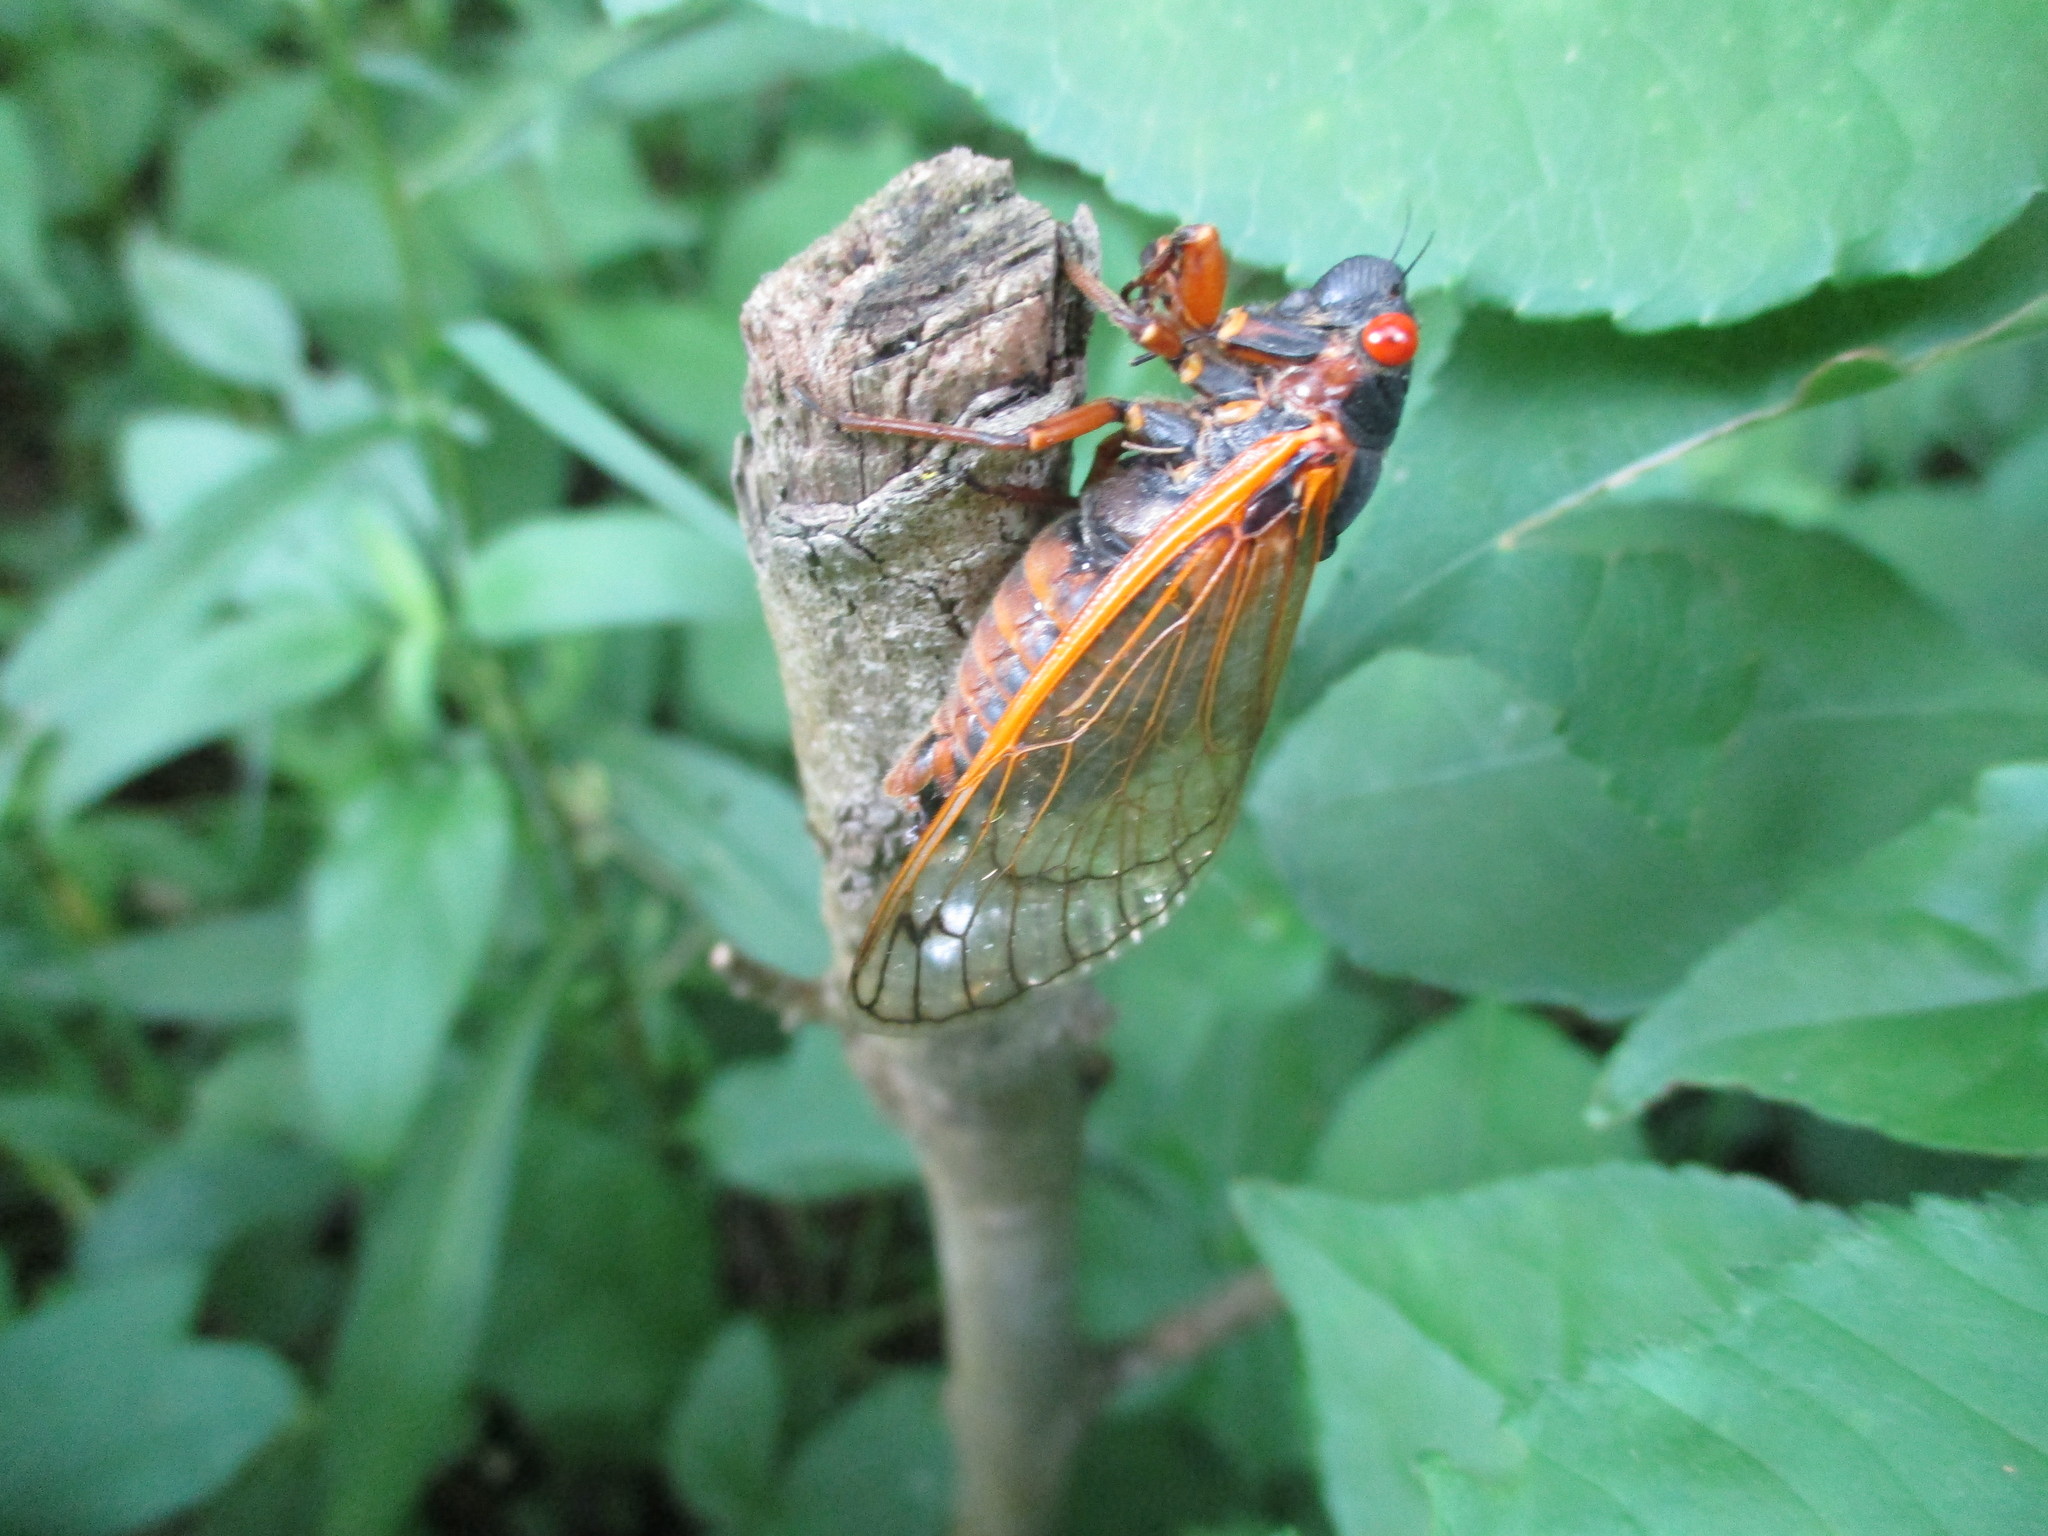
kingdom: Animalia
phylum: Arthropoda
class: Insecta
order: Hemiptera
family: Cicadidae
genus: Magicicada
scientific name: Magicicada septendecim
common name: Periodical cicada
